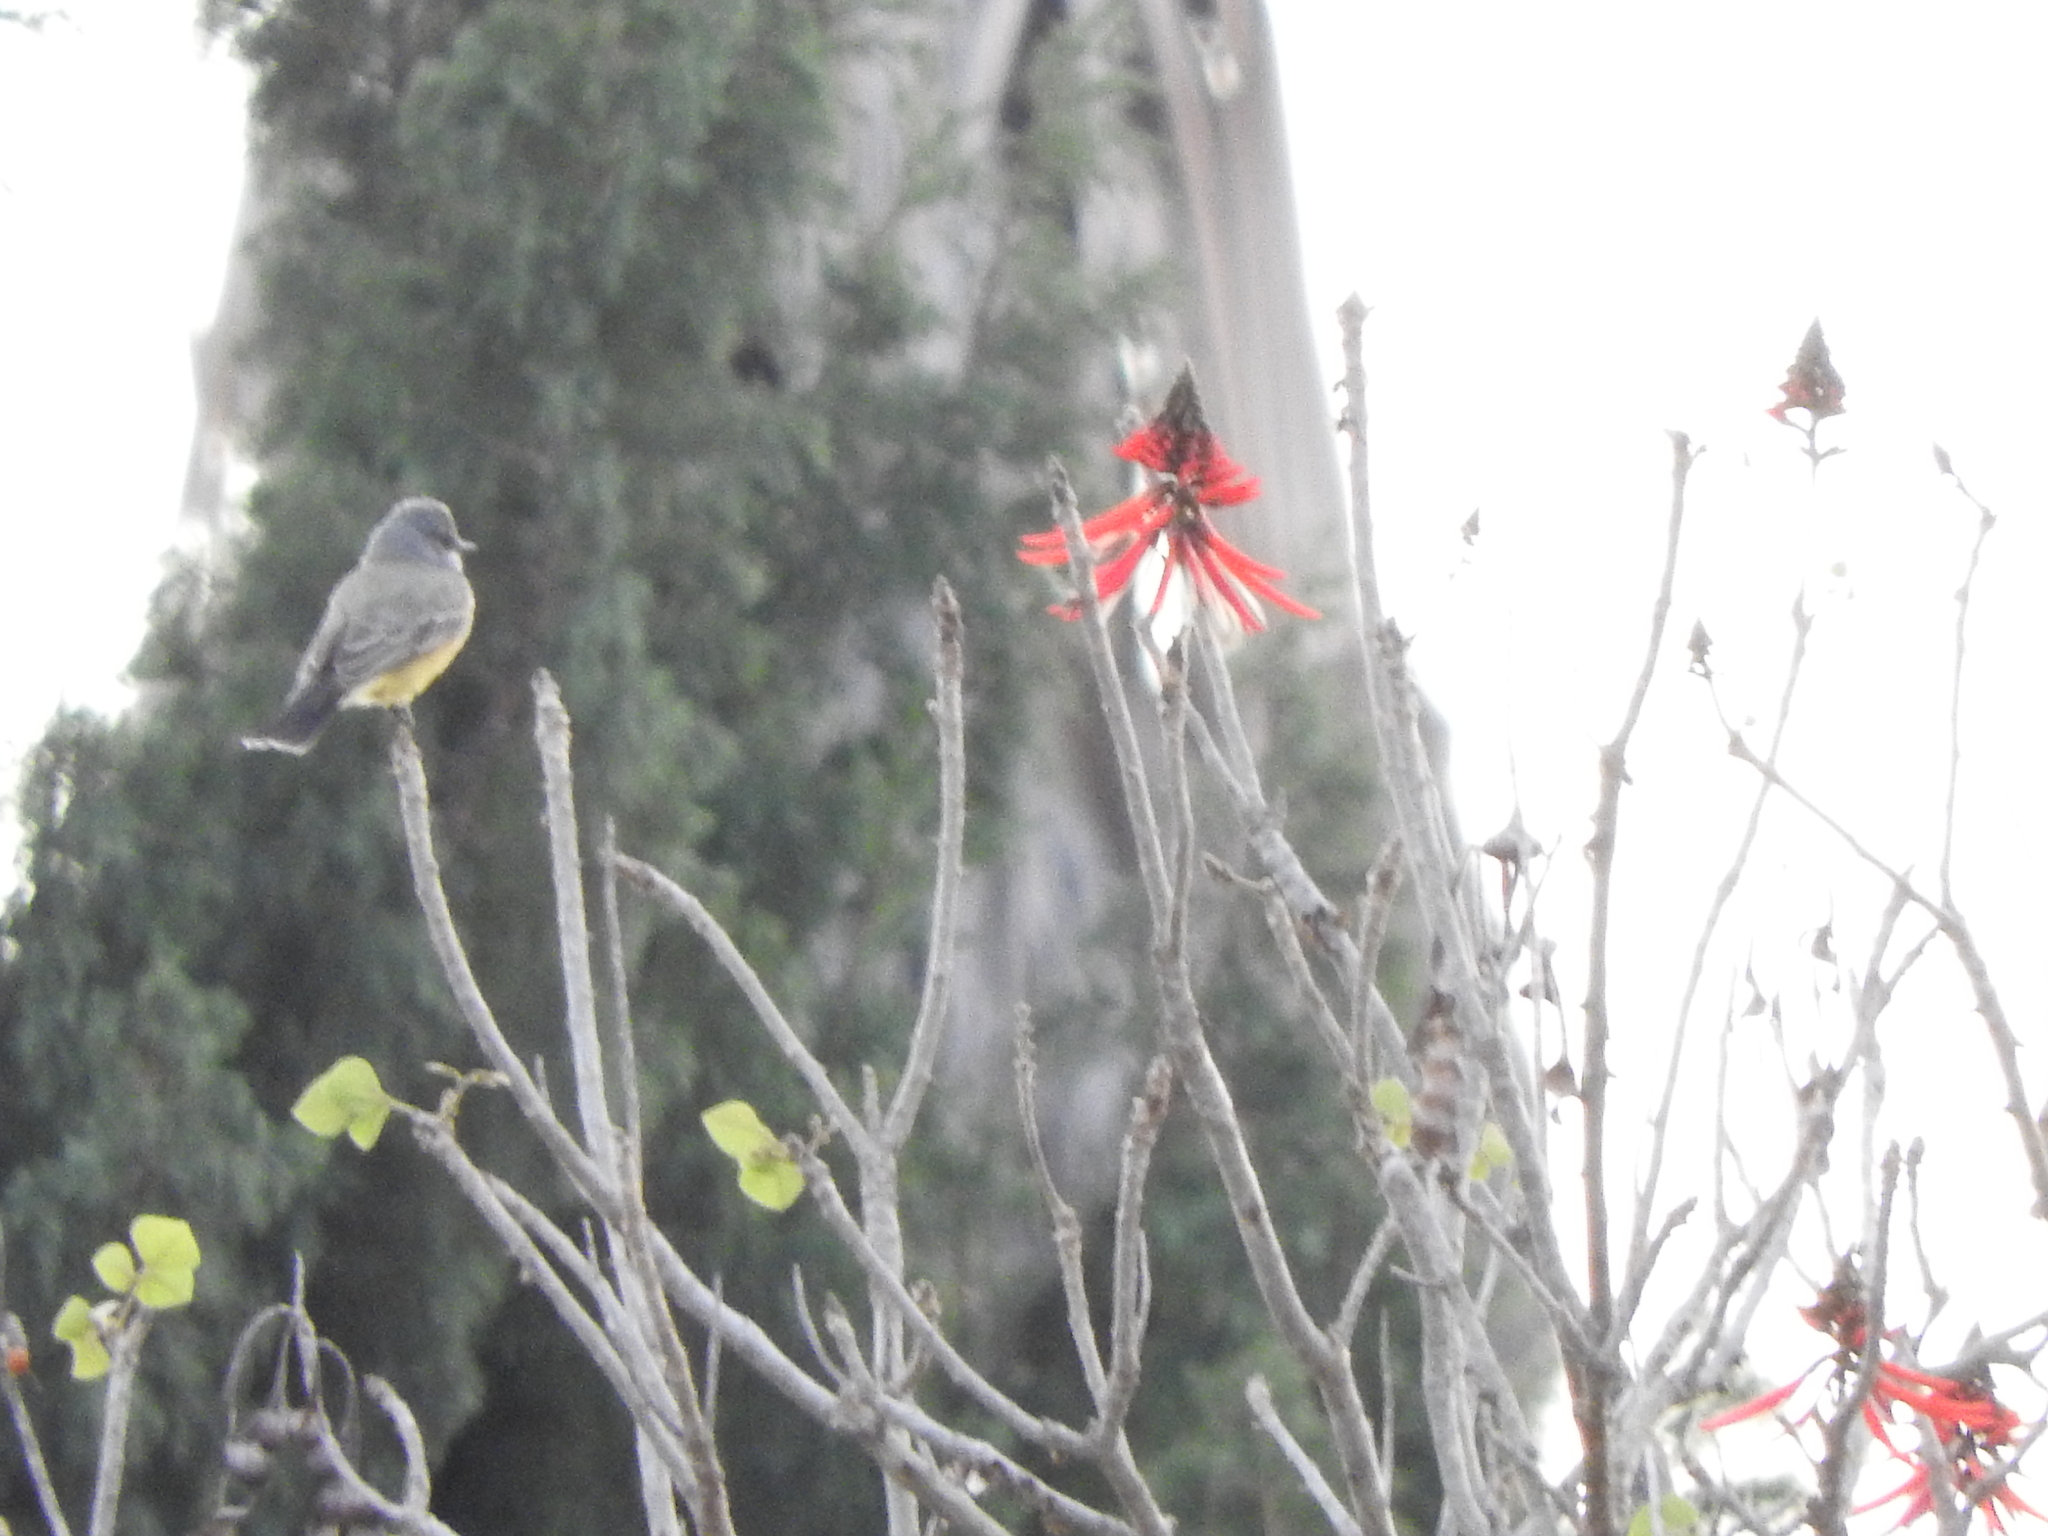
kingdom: Plantae
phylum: Tracheophyta
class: Magnoliopsida
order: Fabales
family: Fabaceae
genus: Erythrina
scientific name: Erythrina americana
